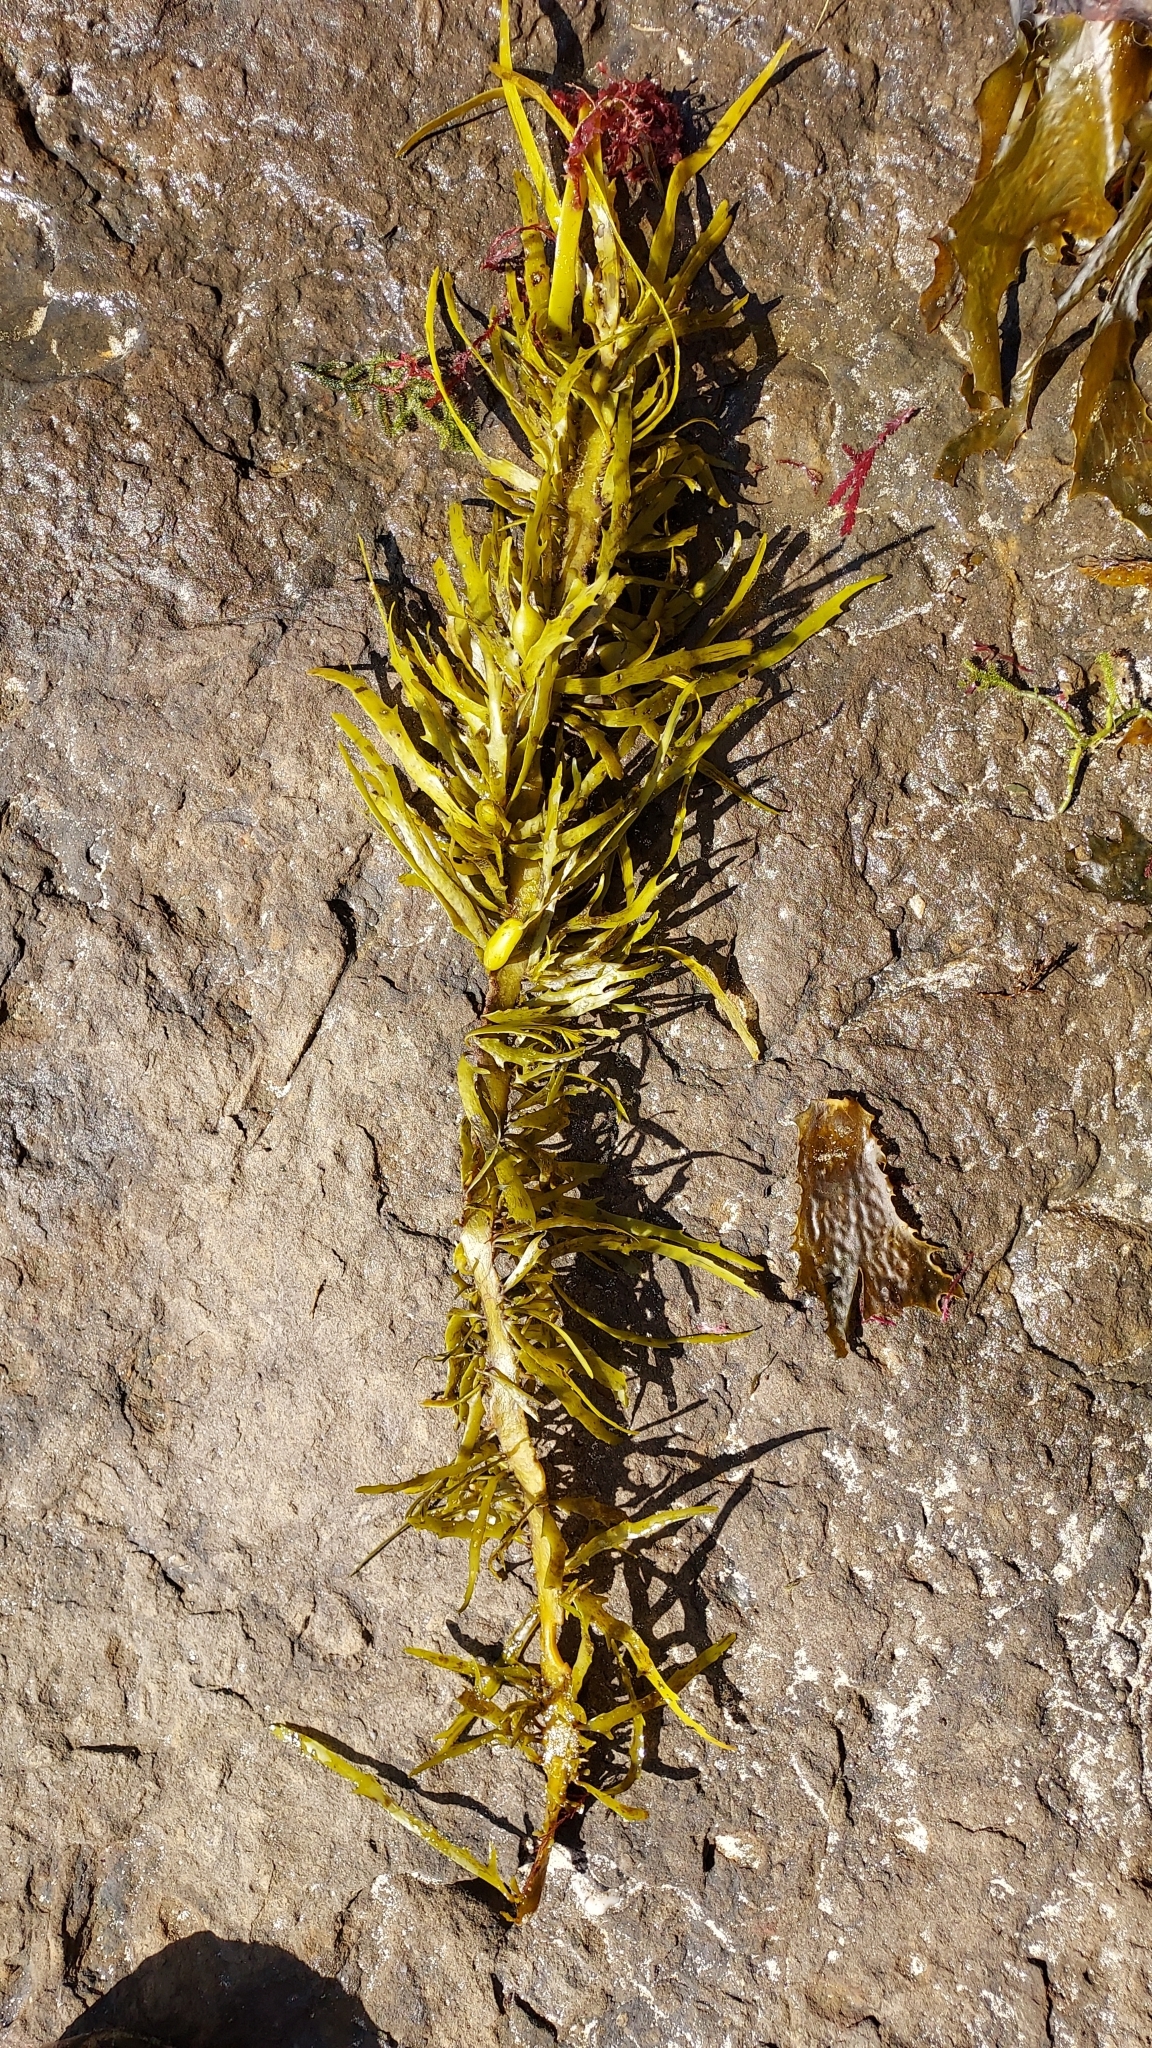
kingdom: Chromista
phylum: Ochrophyta
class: Phaeophyceae
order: Fucales
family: Seirococcaceae
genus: Phyllospora
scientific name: Phyllospora
